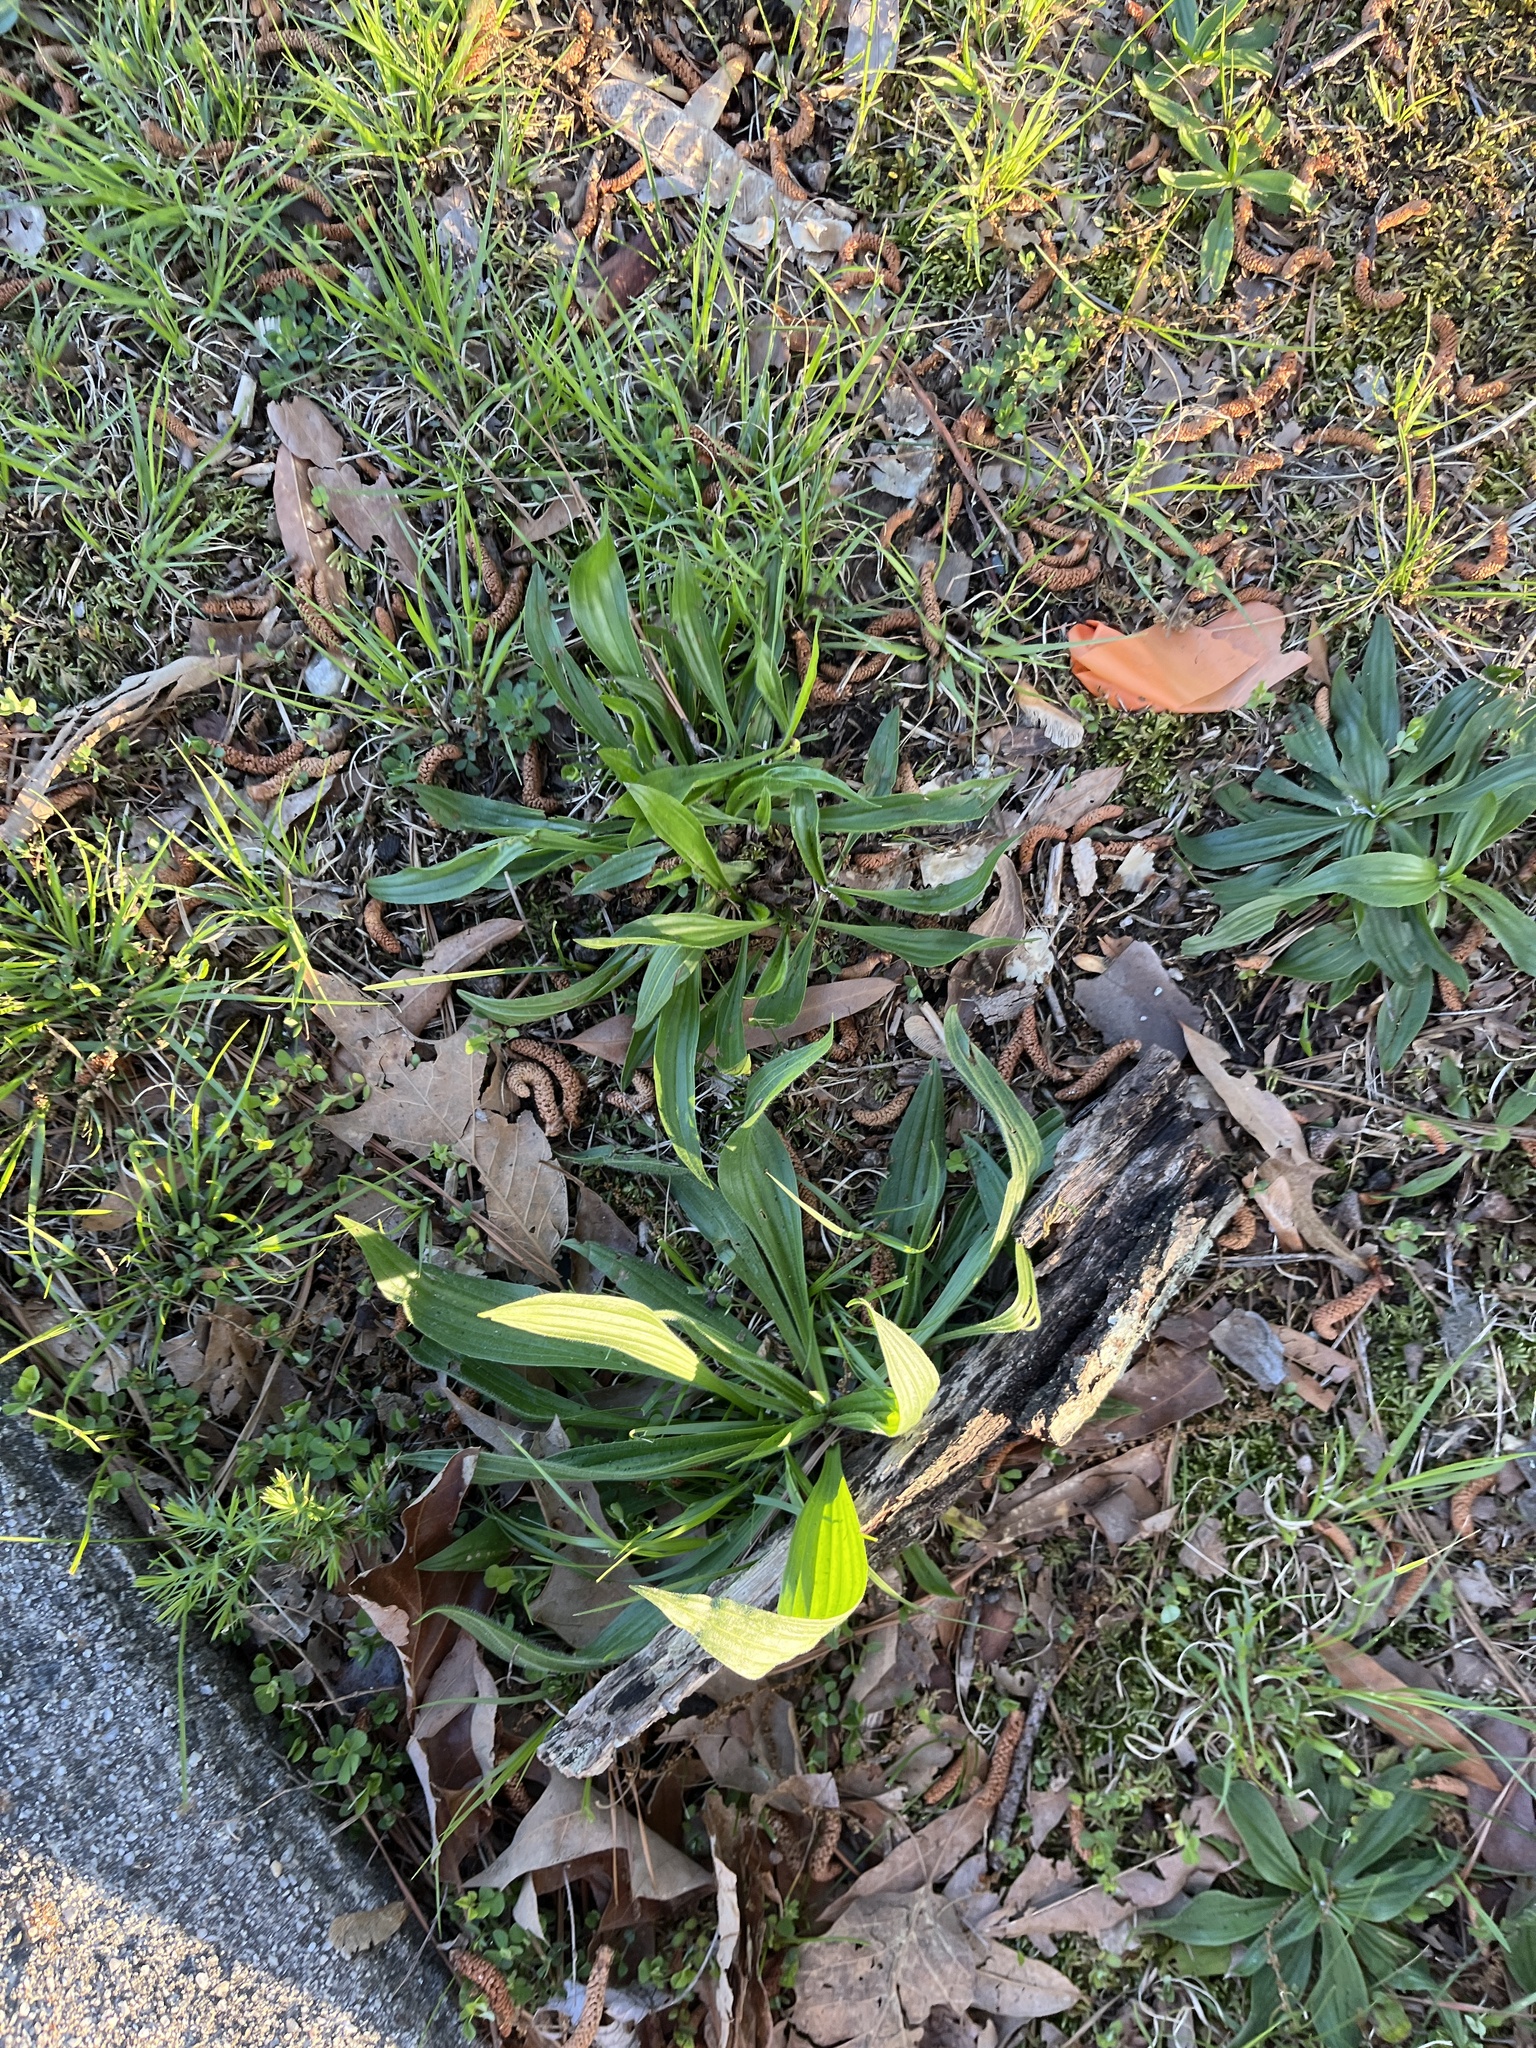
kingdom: Plantae
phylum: Tracheophyta
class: Magnoliopsida
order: Lamiales
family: Plantaginaceae
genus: Plantago
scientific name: Plantago lanceolata
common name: Ribwort plantain
